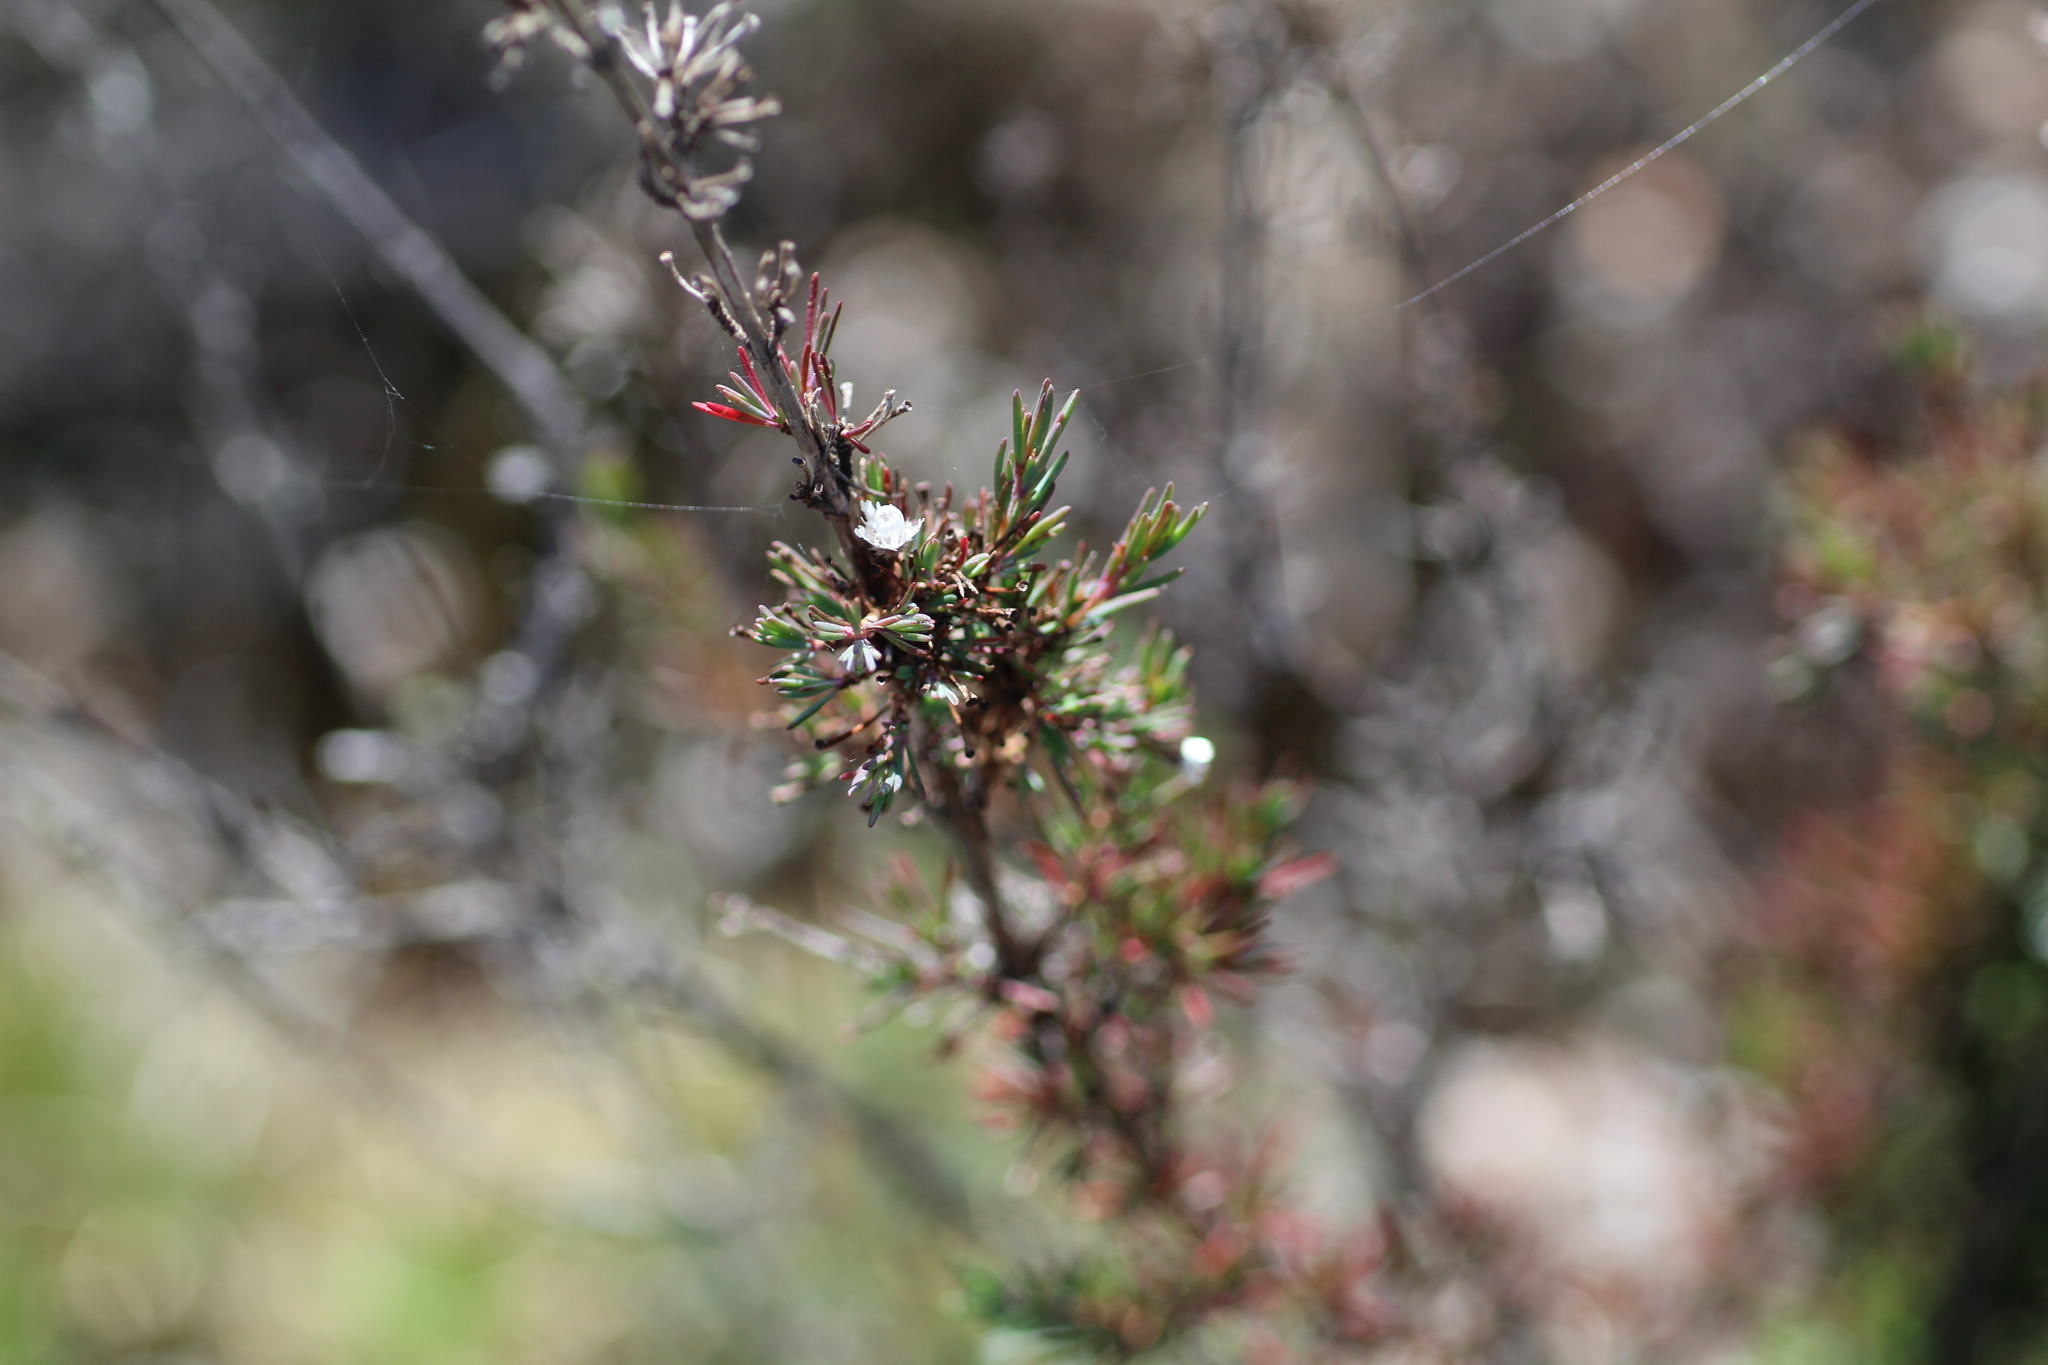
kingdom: Plantae
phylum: Tracheophyta
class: Magnoliopsida
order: Myrtales
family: Myrtaceae
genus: Verticordia
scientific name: Verticordia plumosa
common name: Plume feather-flower
